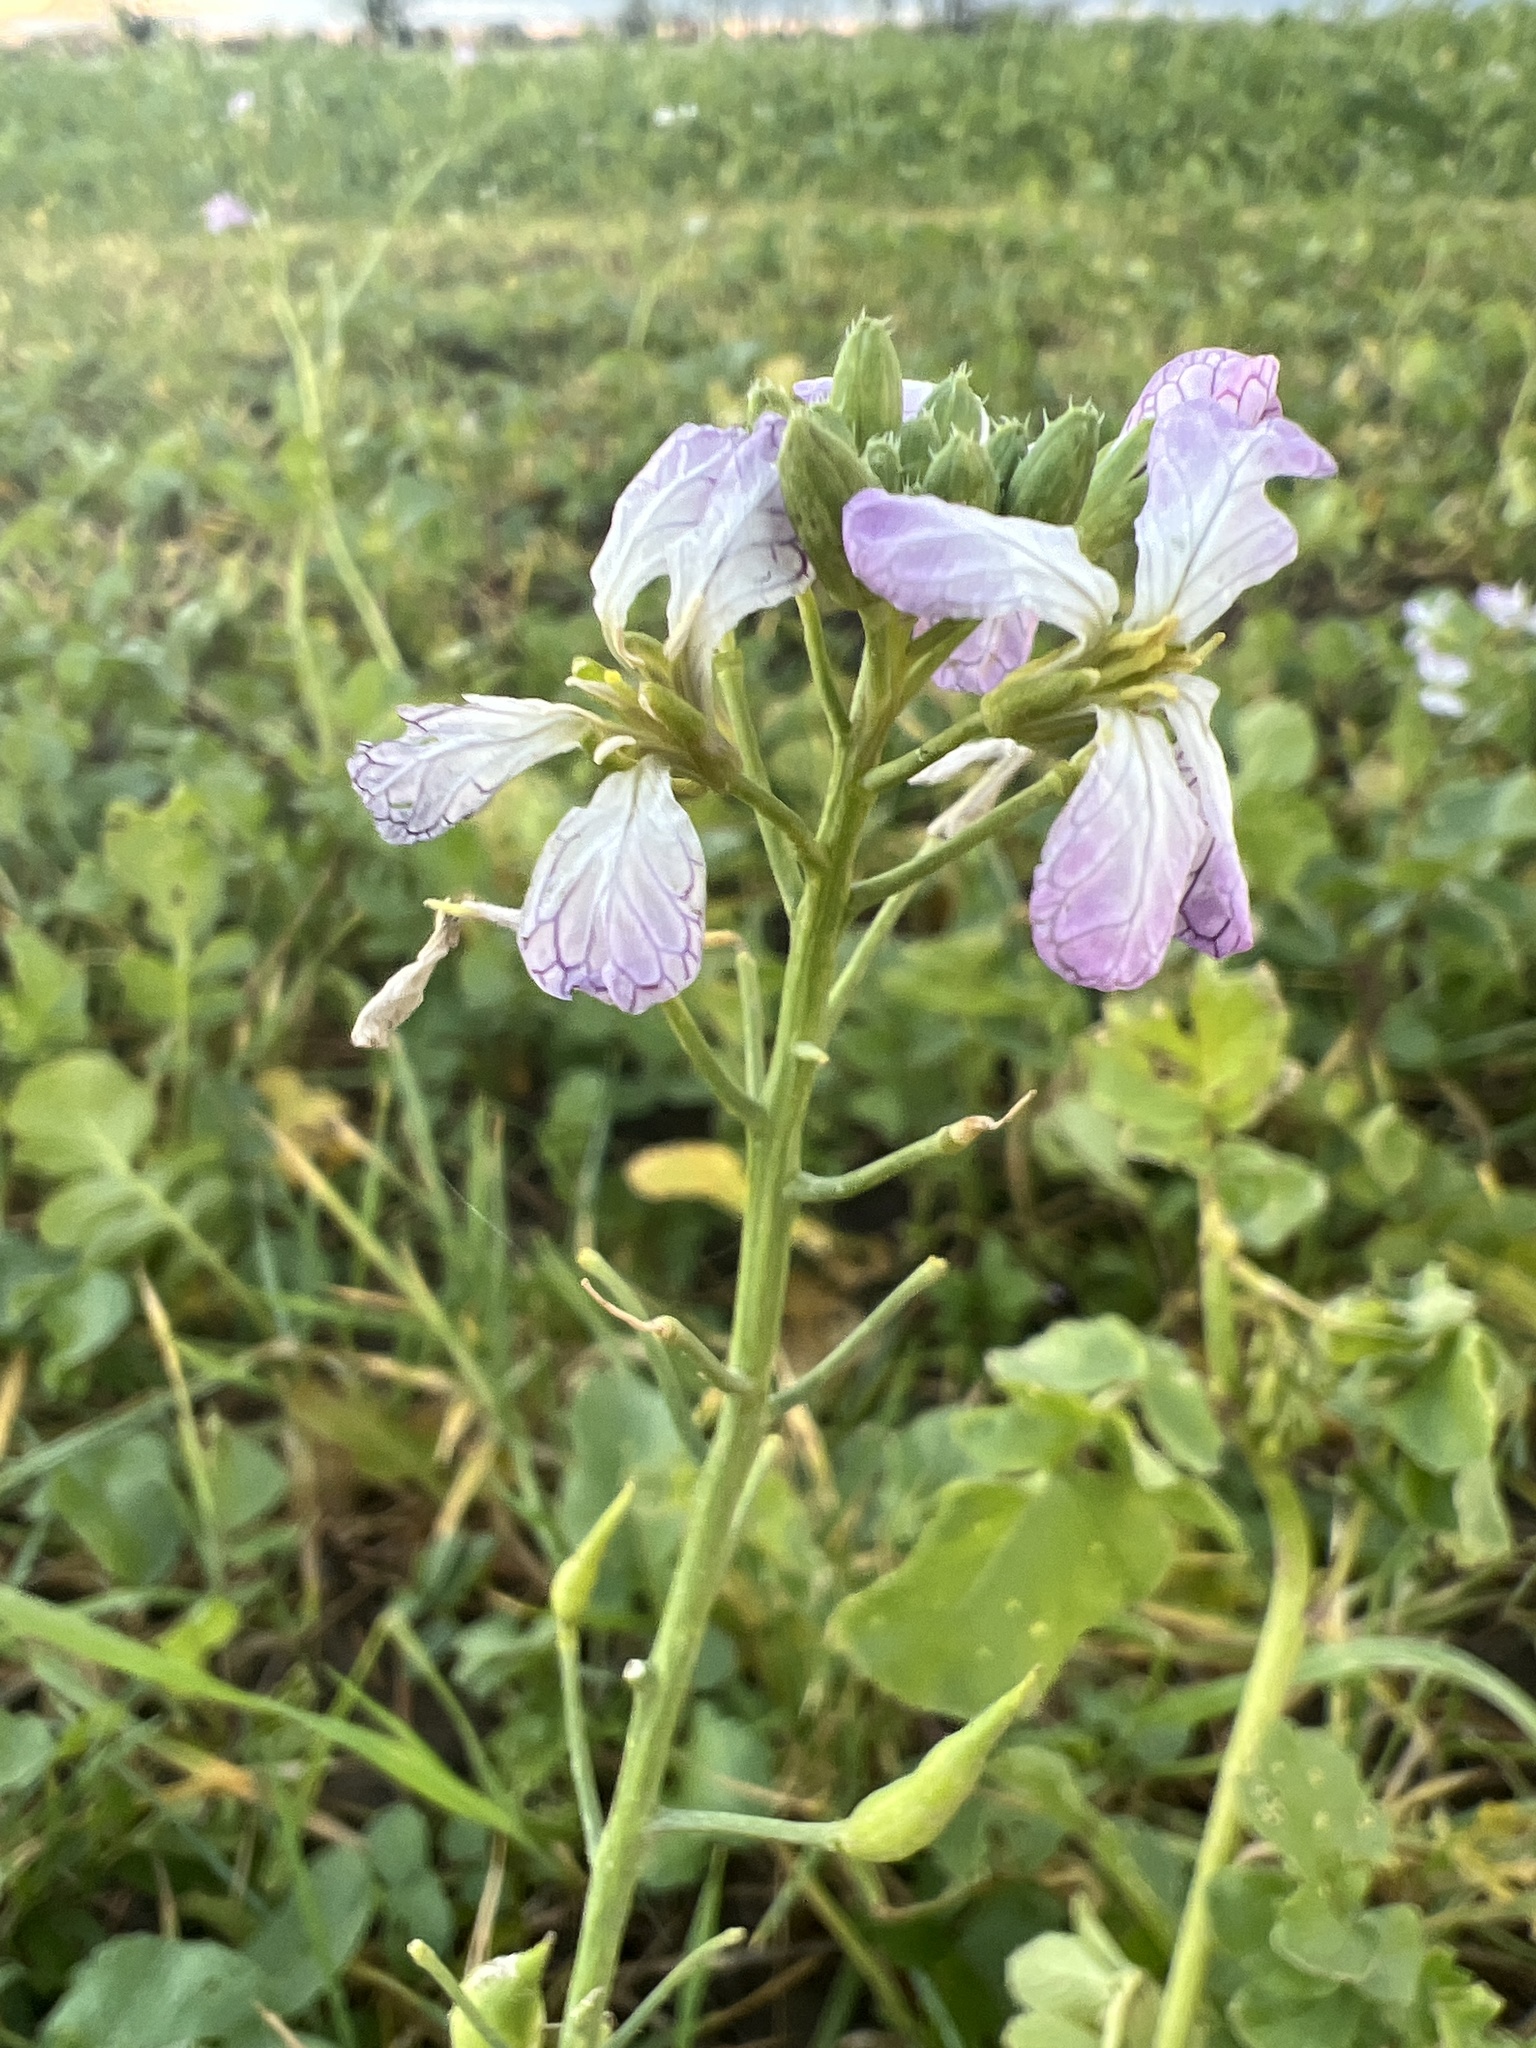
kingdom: Plantae
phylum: Tracheophyta
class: Magnoliopsida
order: Brassicales
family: Brassicaceae
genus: Raphanus
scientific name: Raphanus sativus
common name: Cultivated radish
